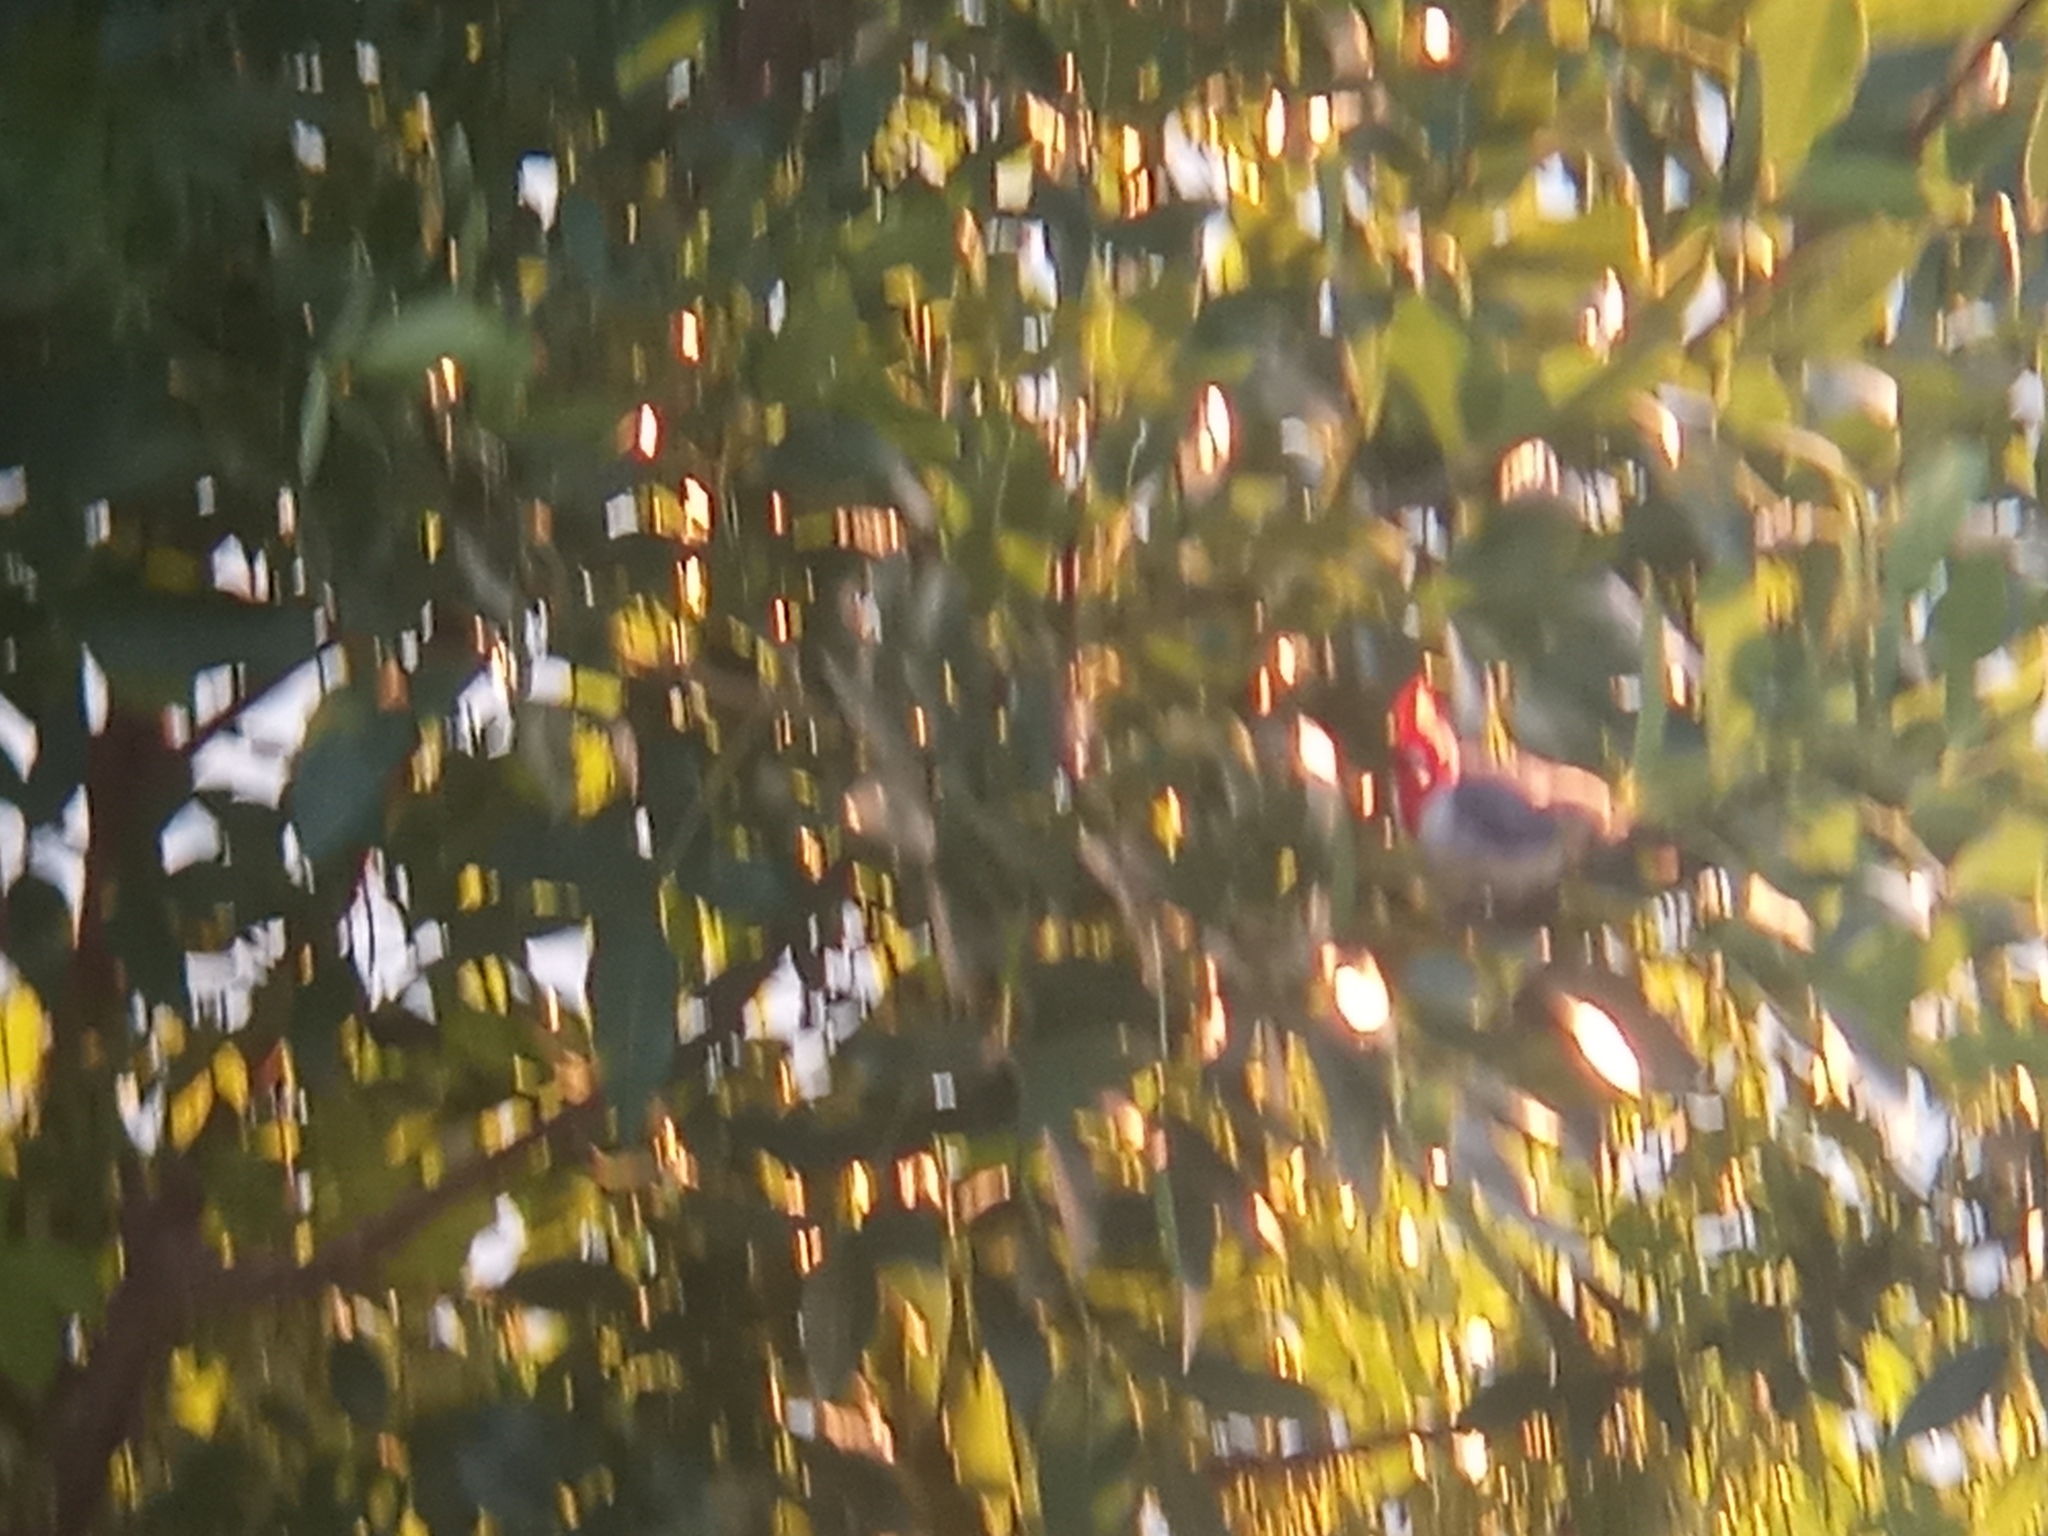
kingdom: Animalia
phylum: Chordata
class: Aves
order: Passeriformes
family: Thraupidae
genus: Paroaria
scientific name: Paroaria coronata
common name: Red-crested cardinal
